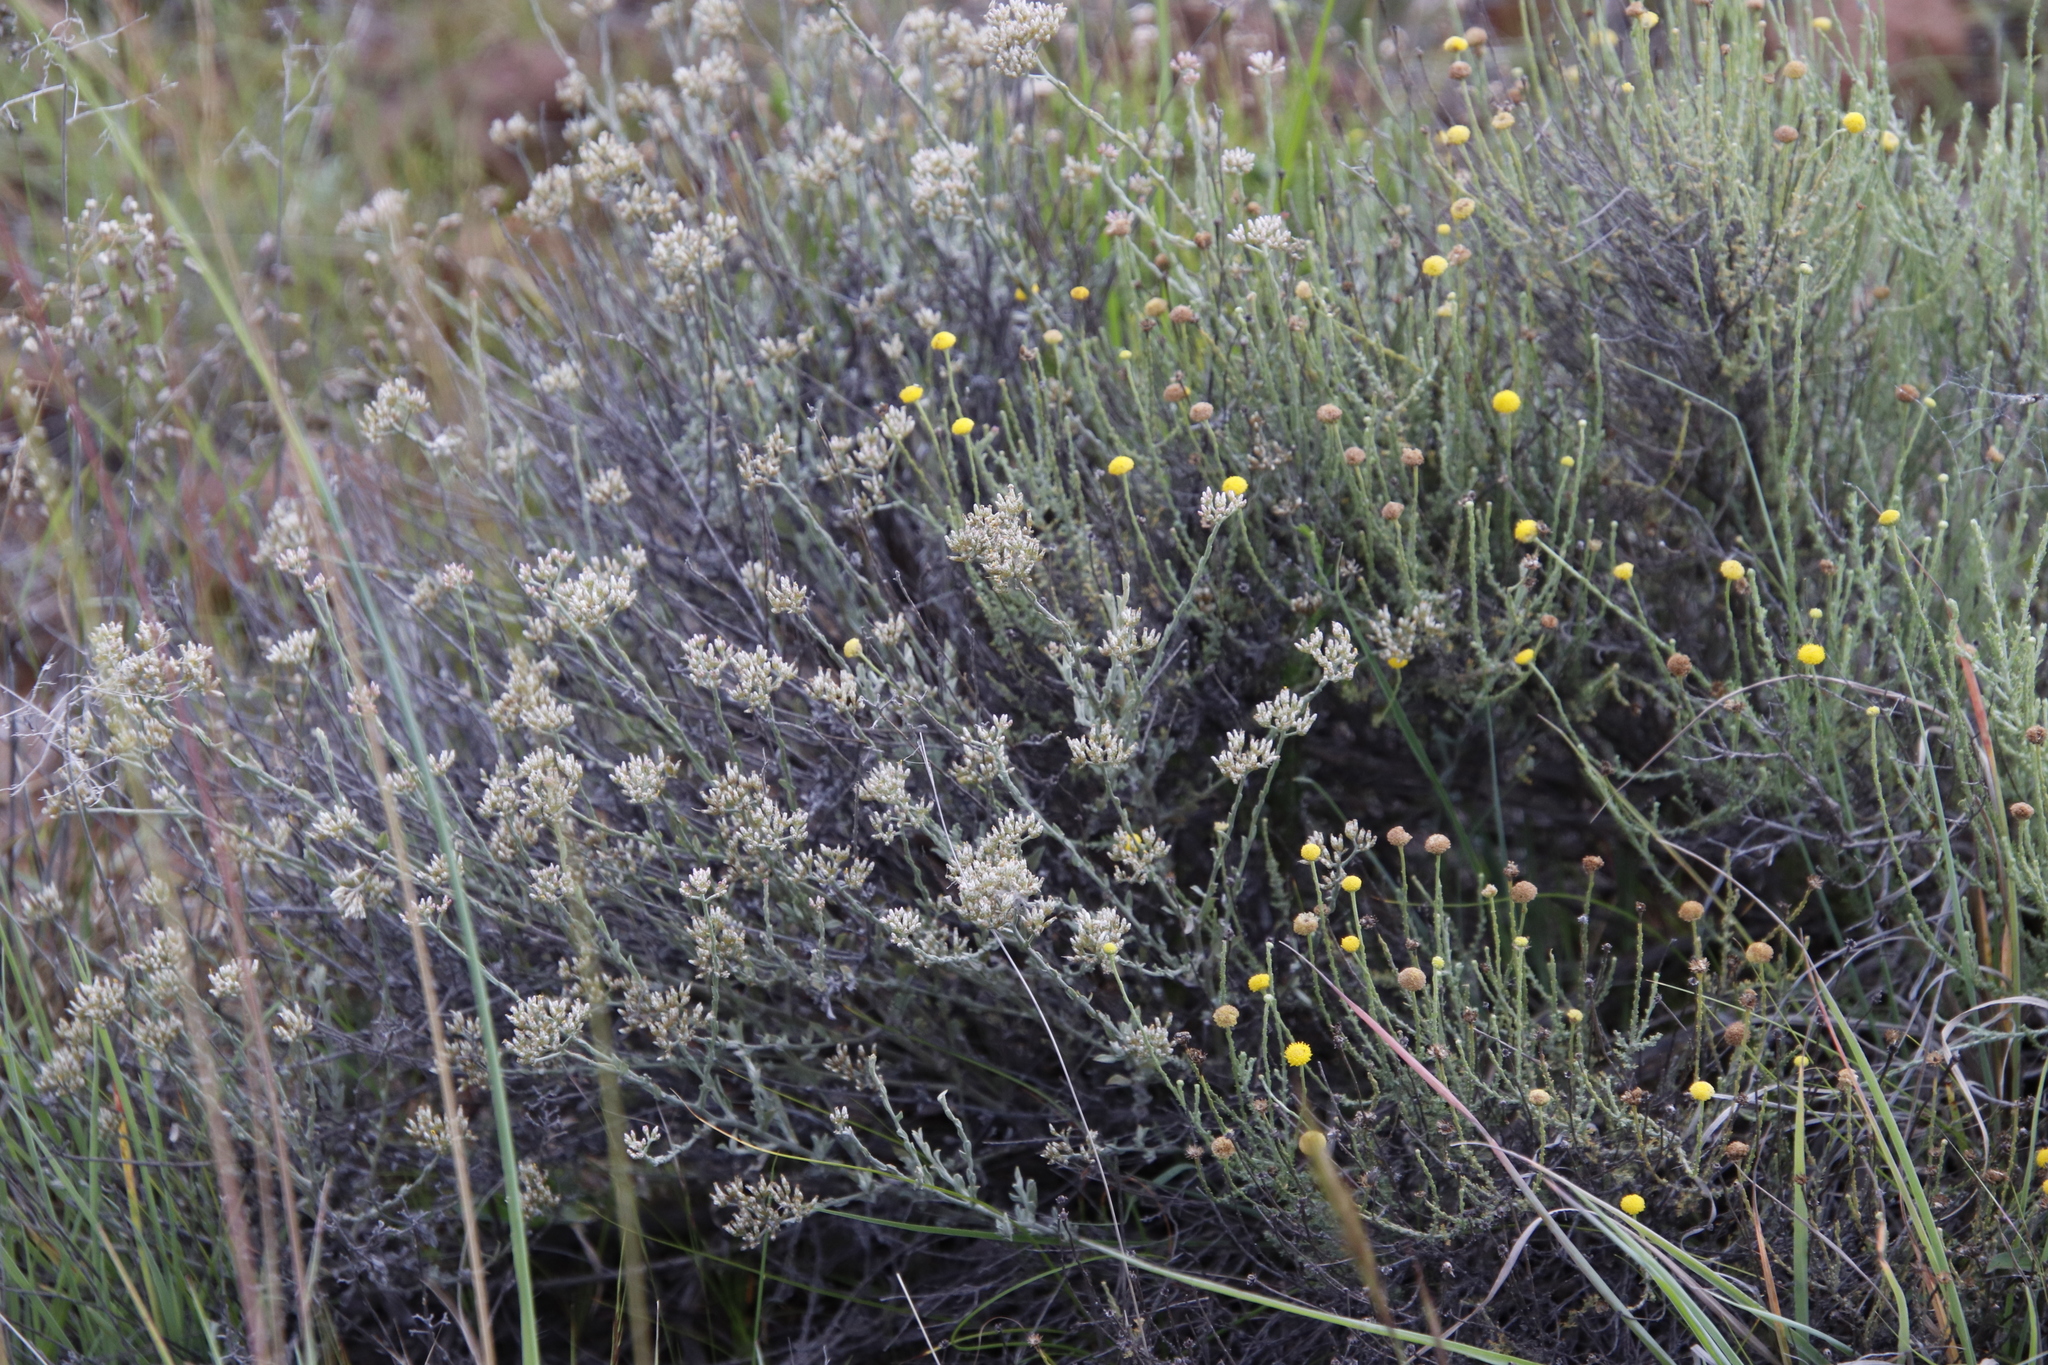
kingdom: Plantae
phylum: Tracheophyta
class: Magnoliopsida
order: Asterales
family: Asteraceae
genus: Helichrysum
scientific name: Helichrysum zeyheri
